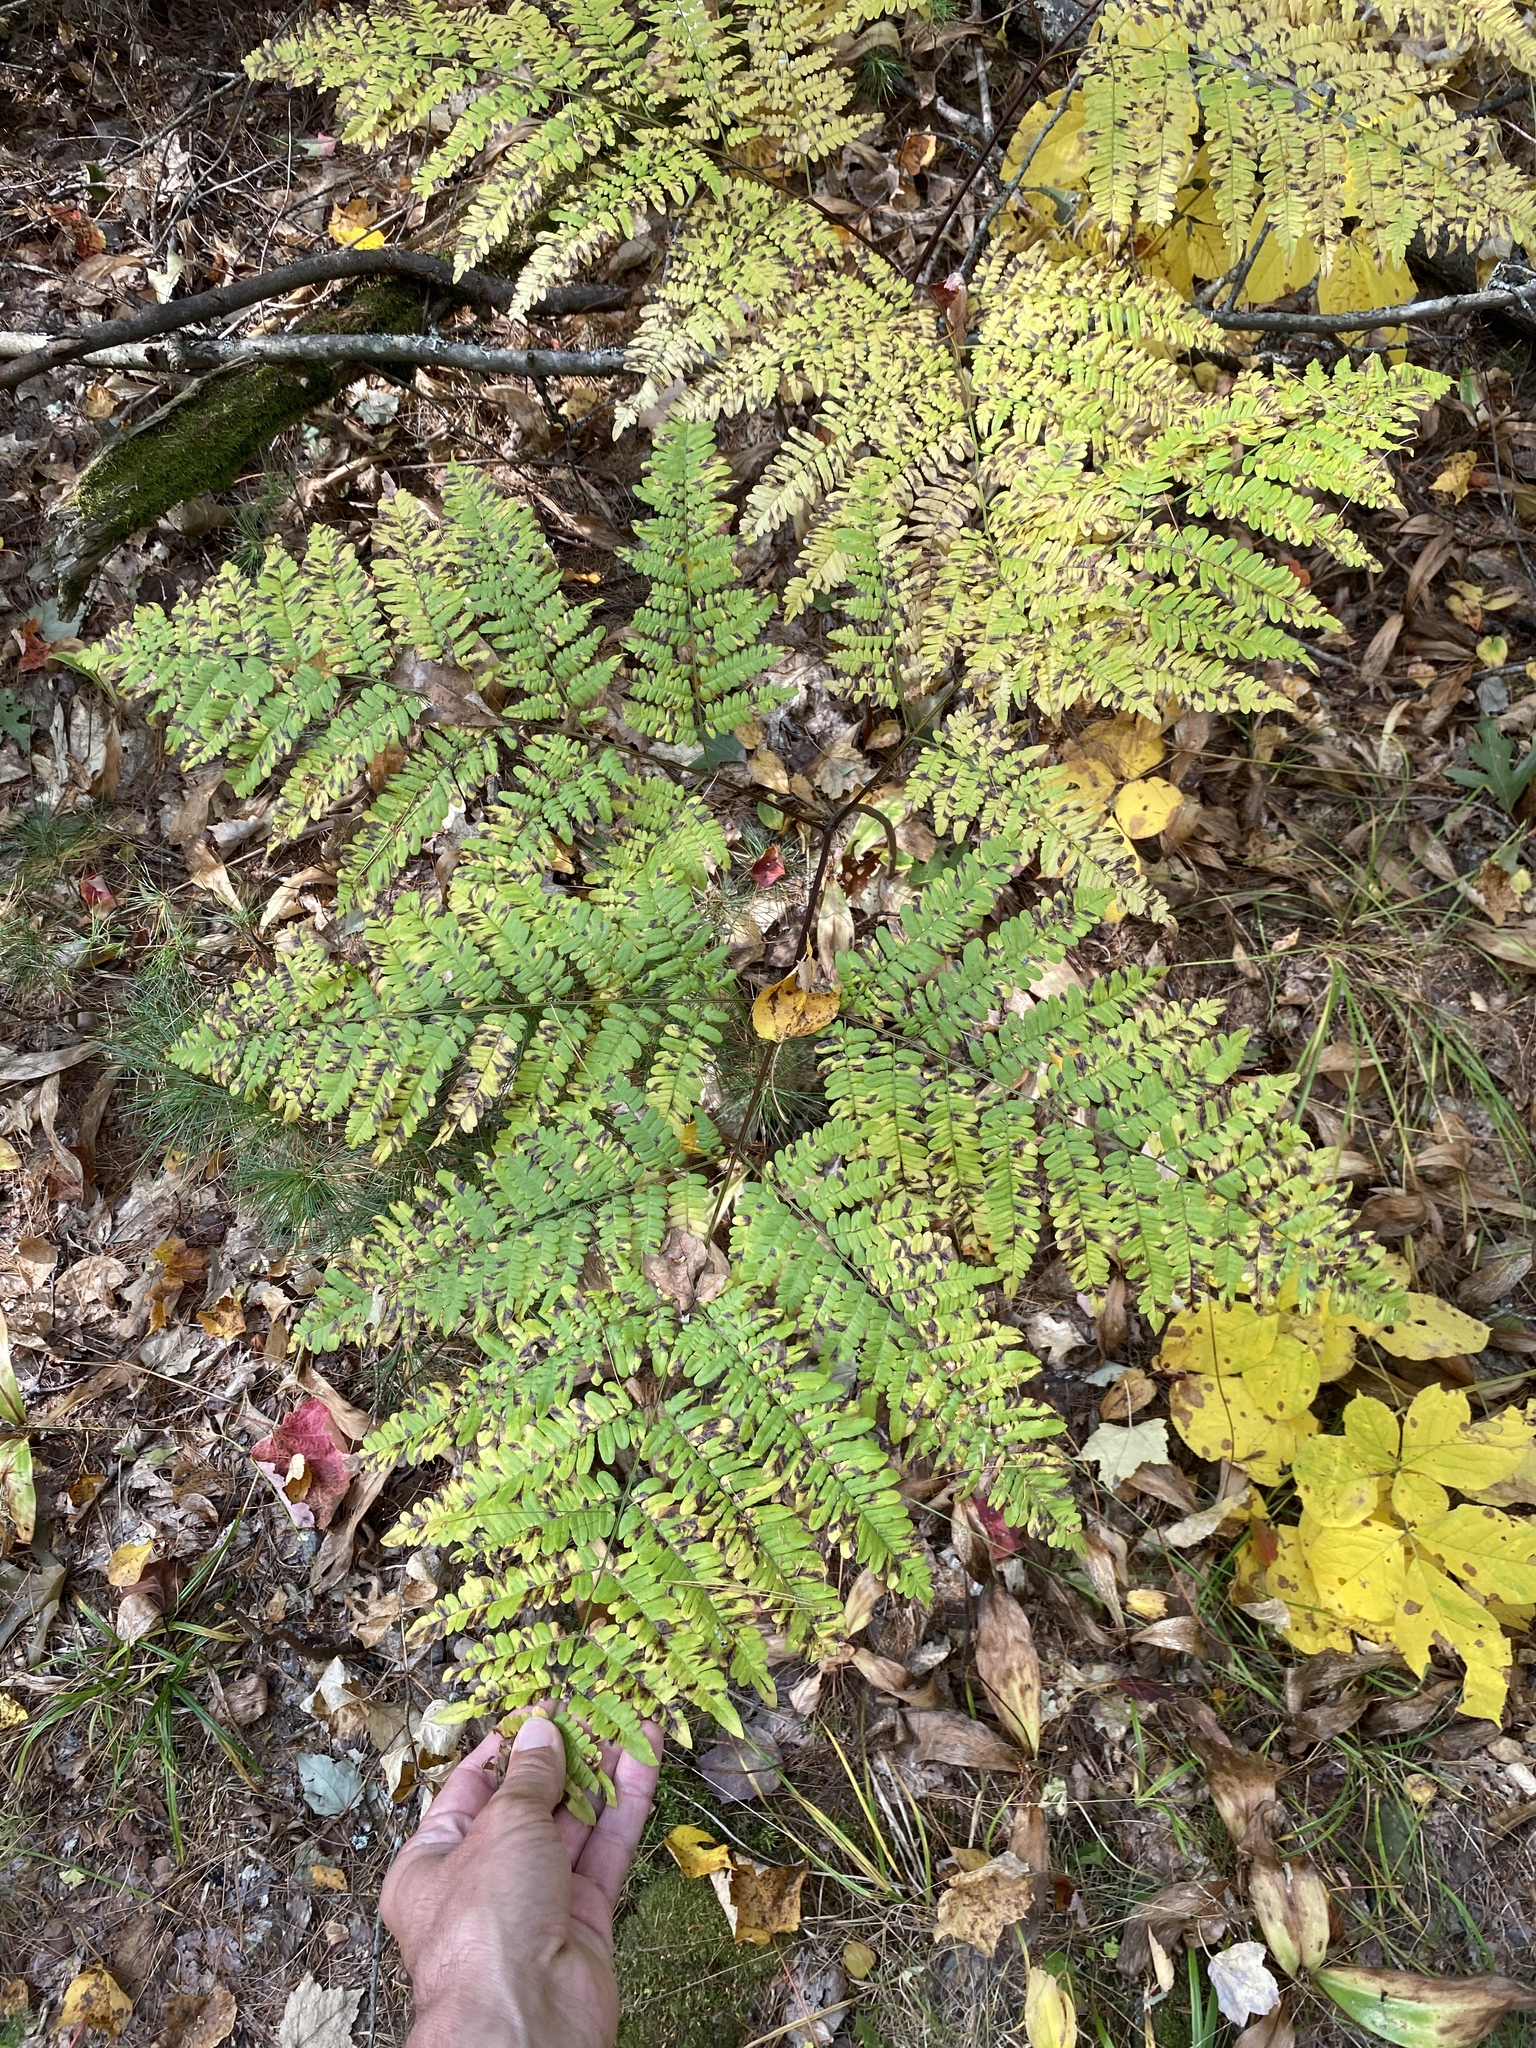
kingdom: Plantae
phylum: Tracheophyta
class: Polypodiopsida
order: Polypodiales
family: Dennstaedtiaceae
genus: Pteridium
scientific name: Pteridium aquilinum
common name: Bracken
